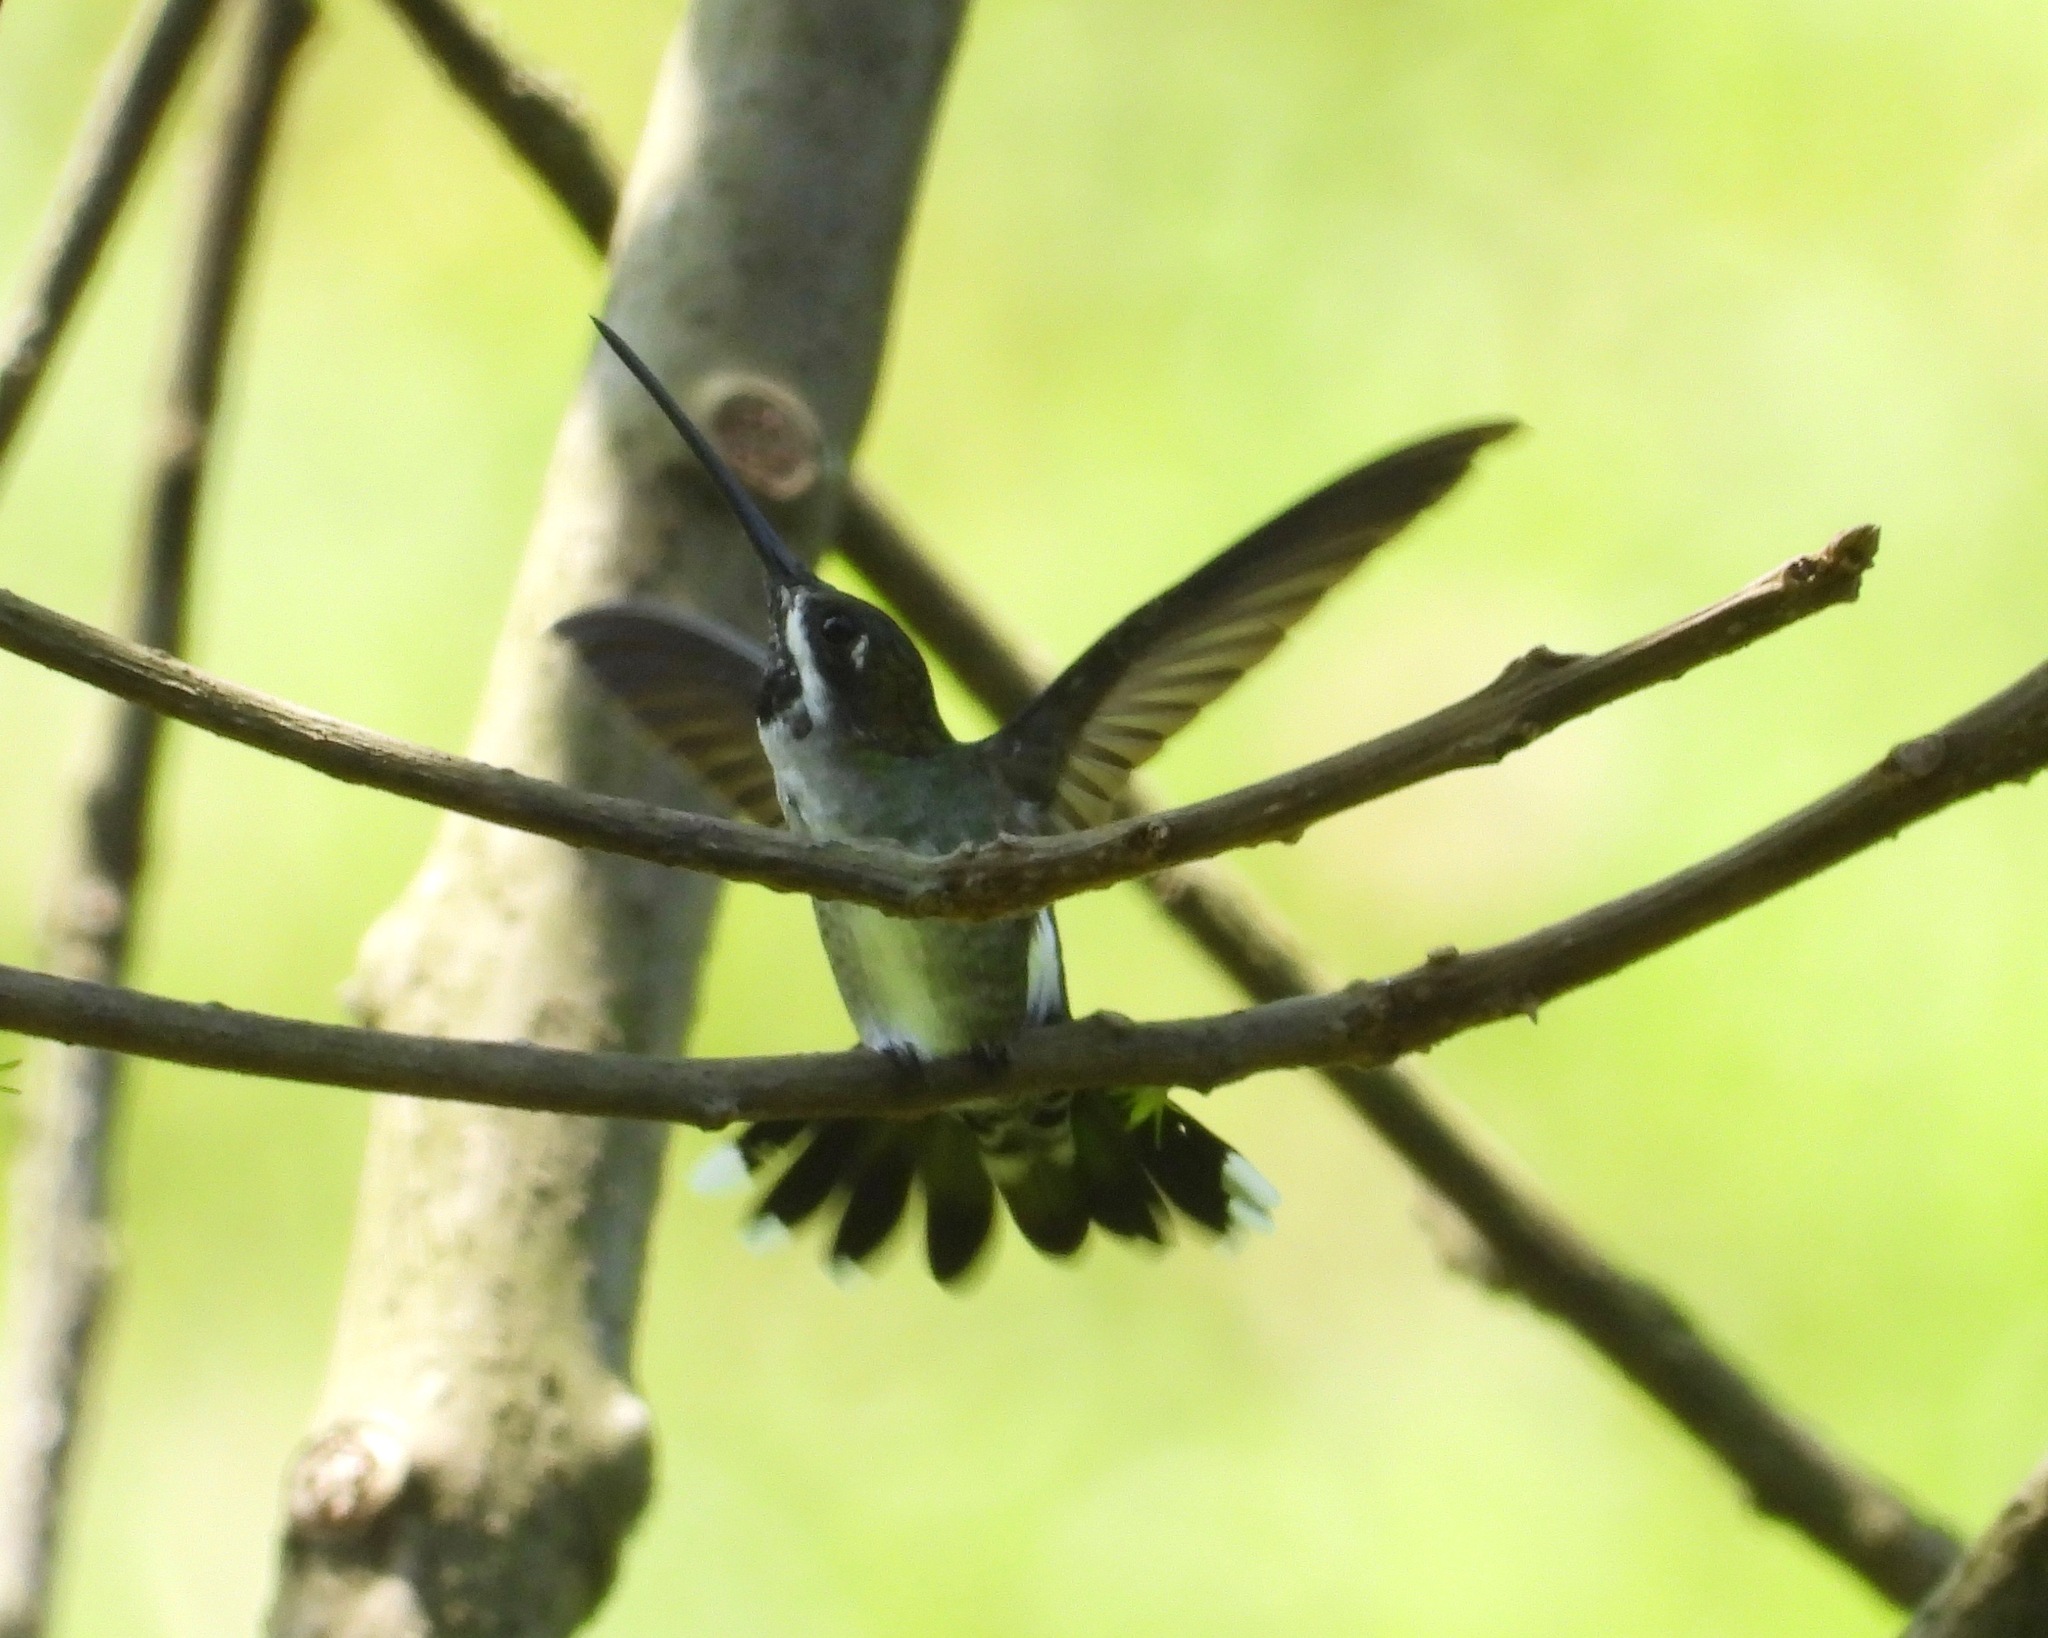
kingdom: Animalia
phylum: Chordata
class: Aves
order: Apodiformes
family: Trochilidae
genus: Heliomaster
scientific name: Heliomaster longirostris
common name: Long-billed starthroat
